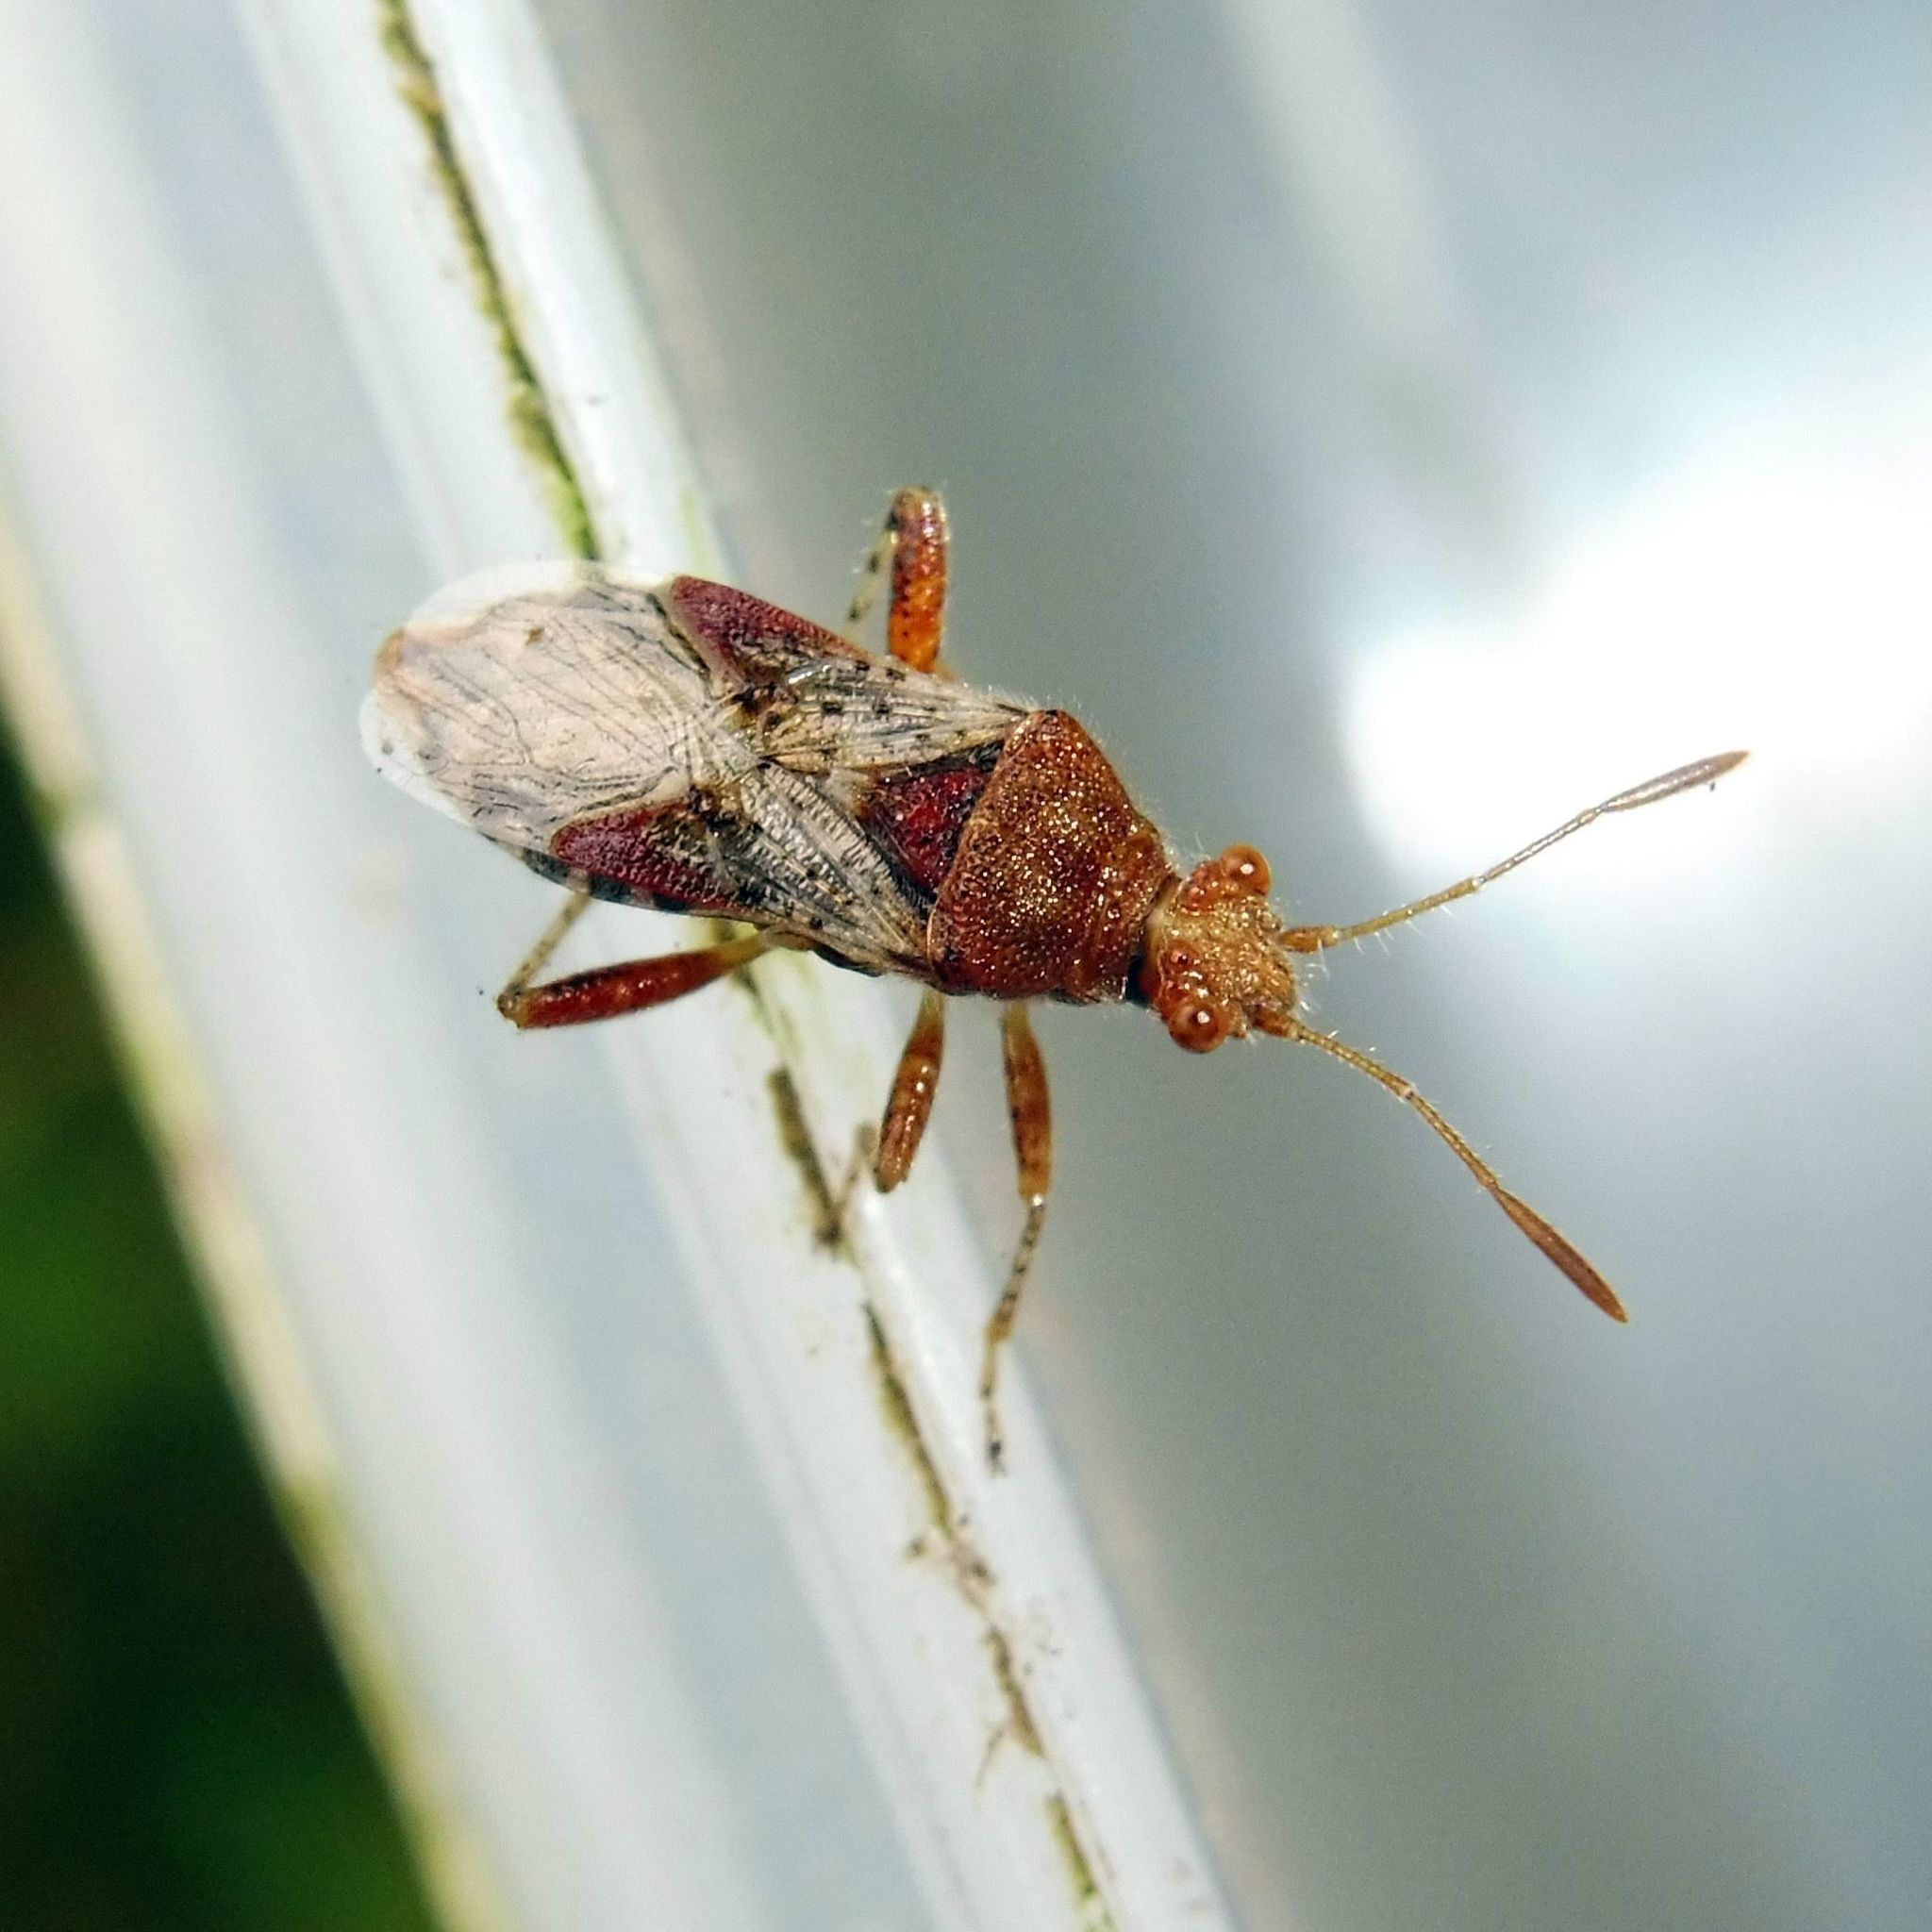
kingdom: Animalia
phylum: Arthropoda
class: Insecta
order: Hemiptera
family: Rhopalidae
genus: Rhopalus
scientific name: Rhopalus subrufus
